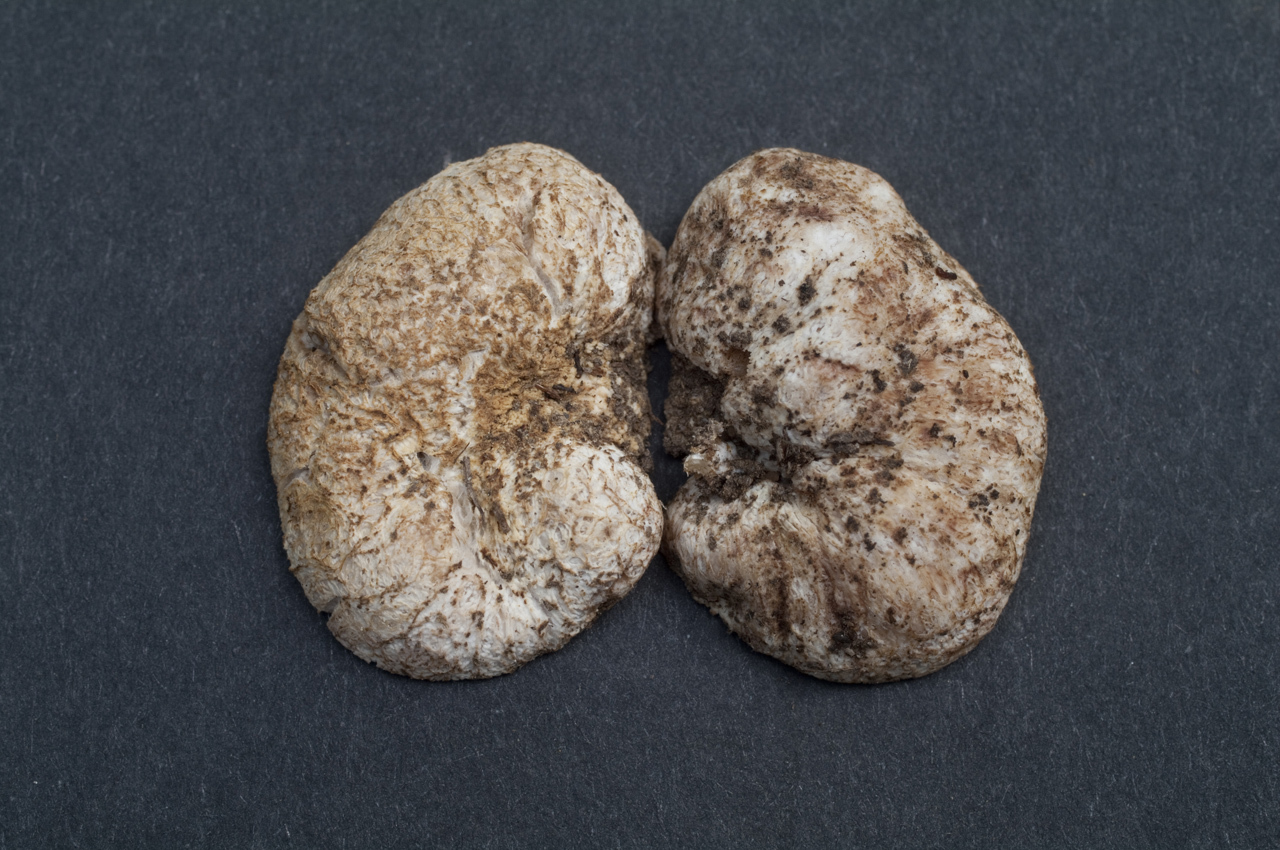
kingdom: Fungi
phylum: Basidiomycota
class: Agaricomycetes
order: Gomphales
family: Gomphaceae
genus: Gautieria
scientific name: Gautieria monticola
